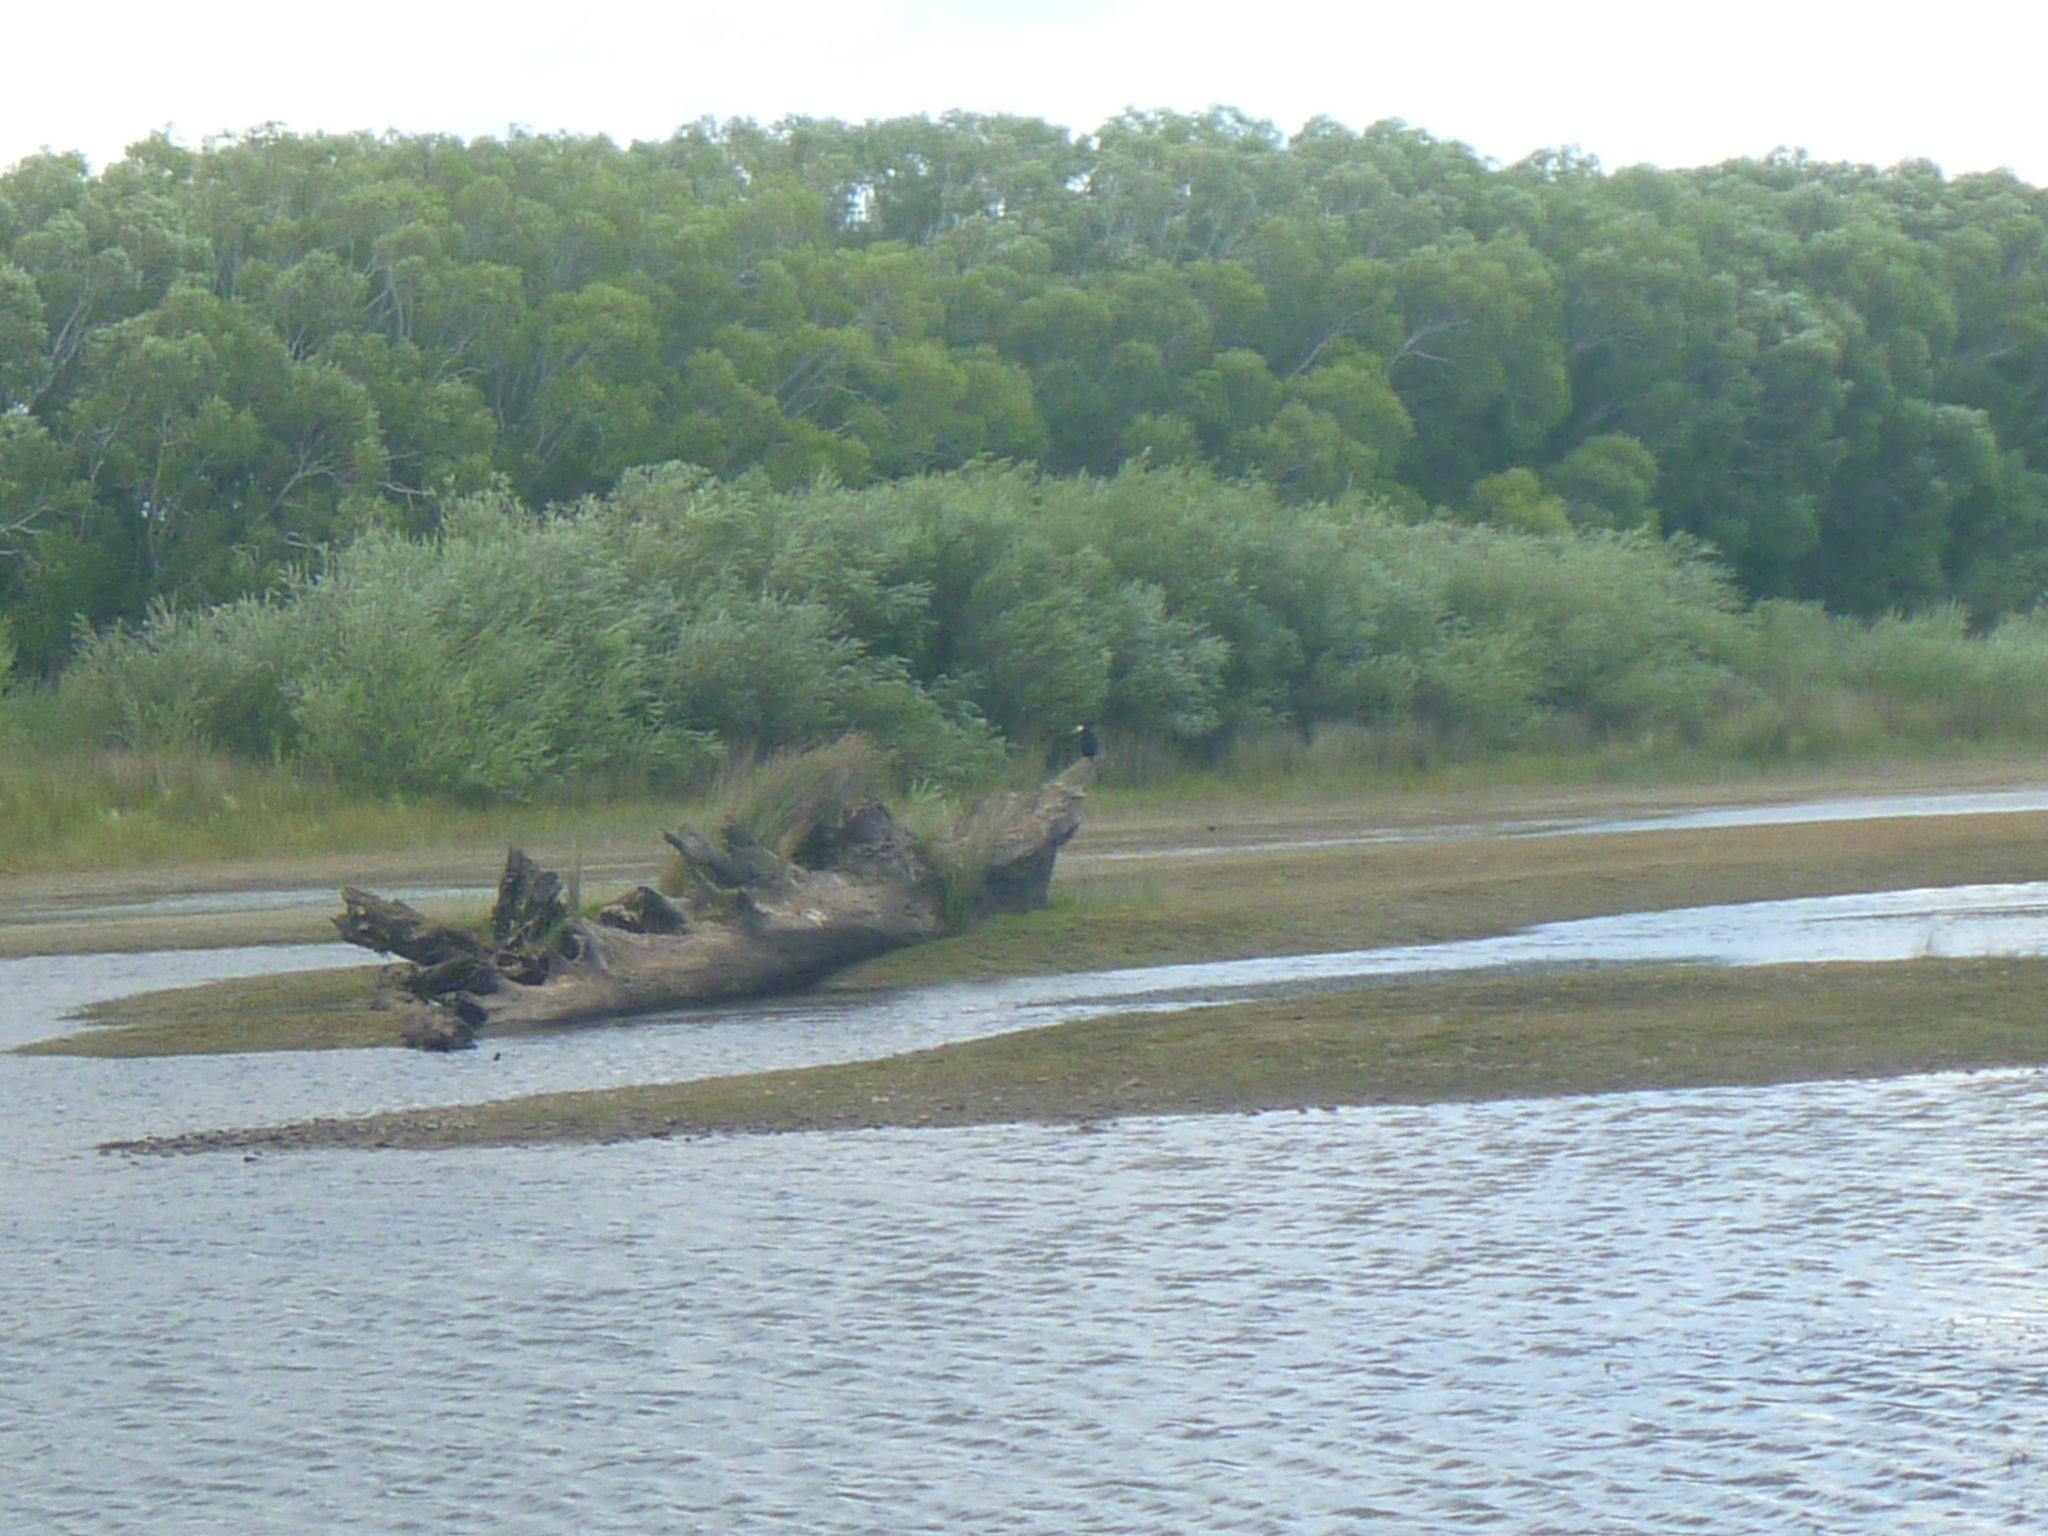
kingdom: Animalia
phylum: Chordata
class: Aves
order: Suliformes
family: Phalacrocoracidae
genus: Microcarbo
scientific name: Microcarbo melanoleucos
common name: Little pied cormorant
